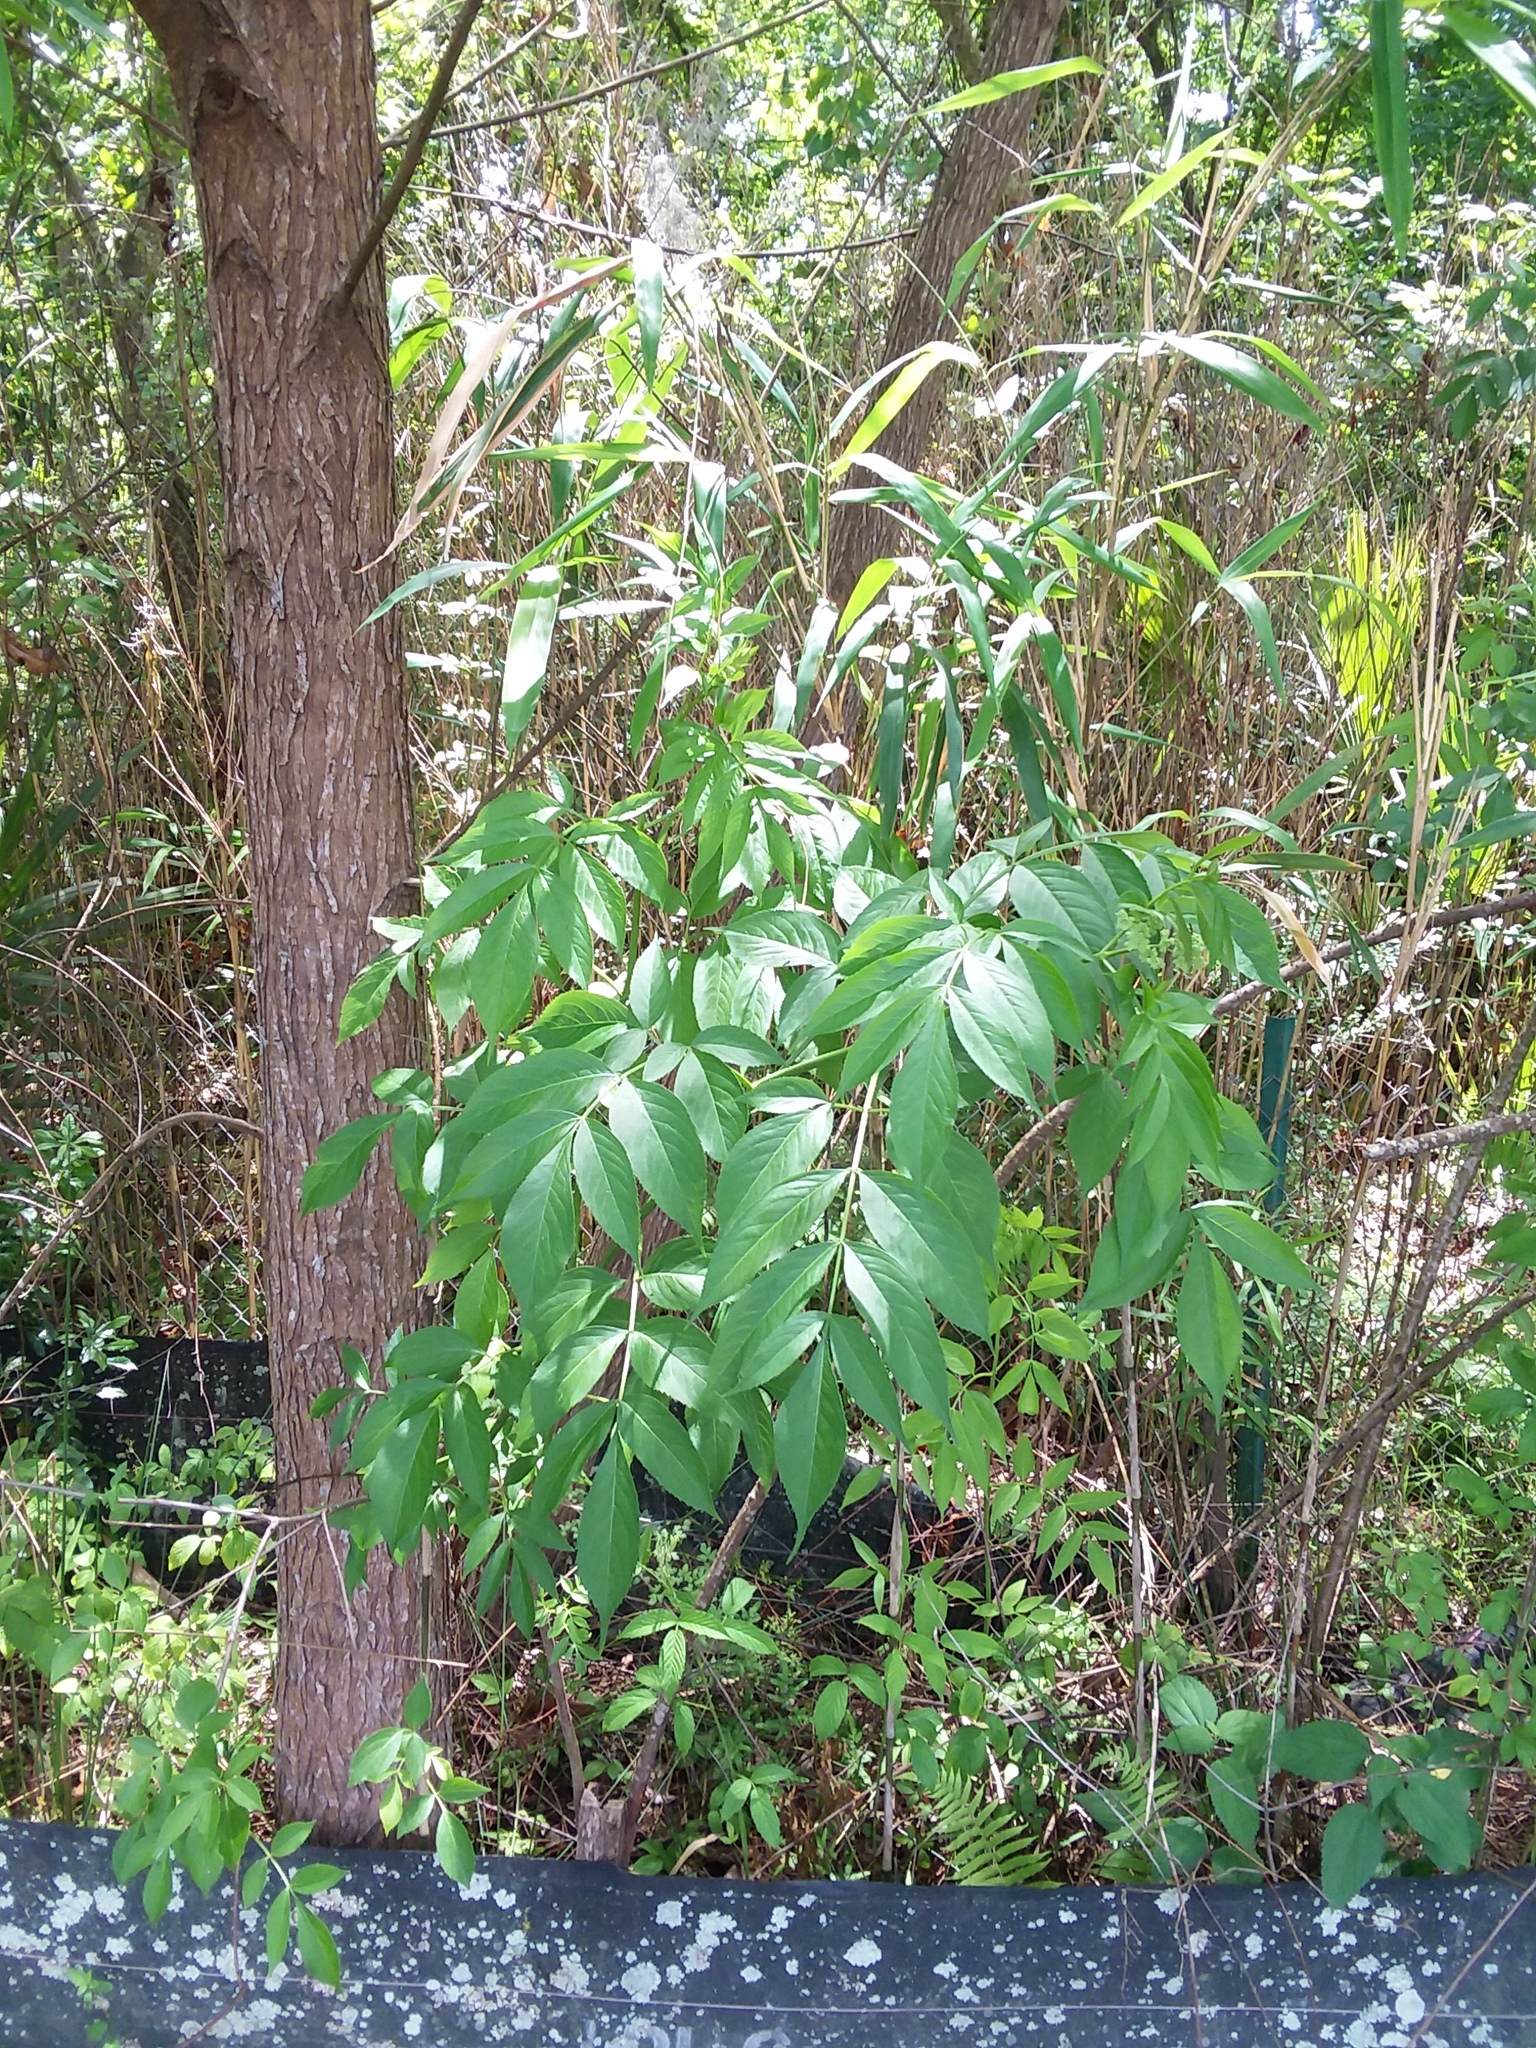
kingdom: Plantae
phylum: Tracheophyta
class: Magnoliopsida
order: Dipsacales
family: Viburnaceae
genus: Sambucus
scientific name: Sambucus canadensis
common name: American elder
